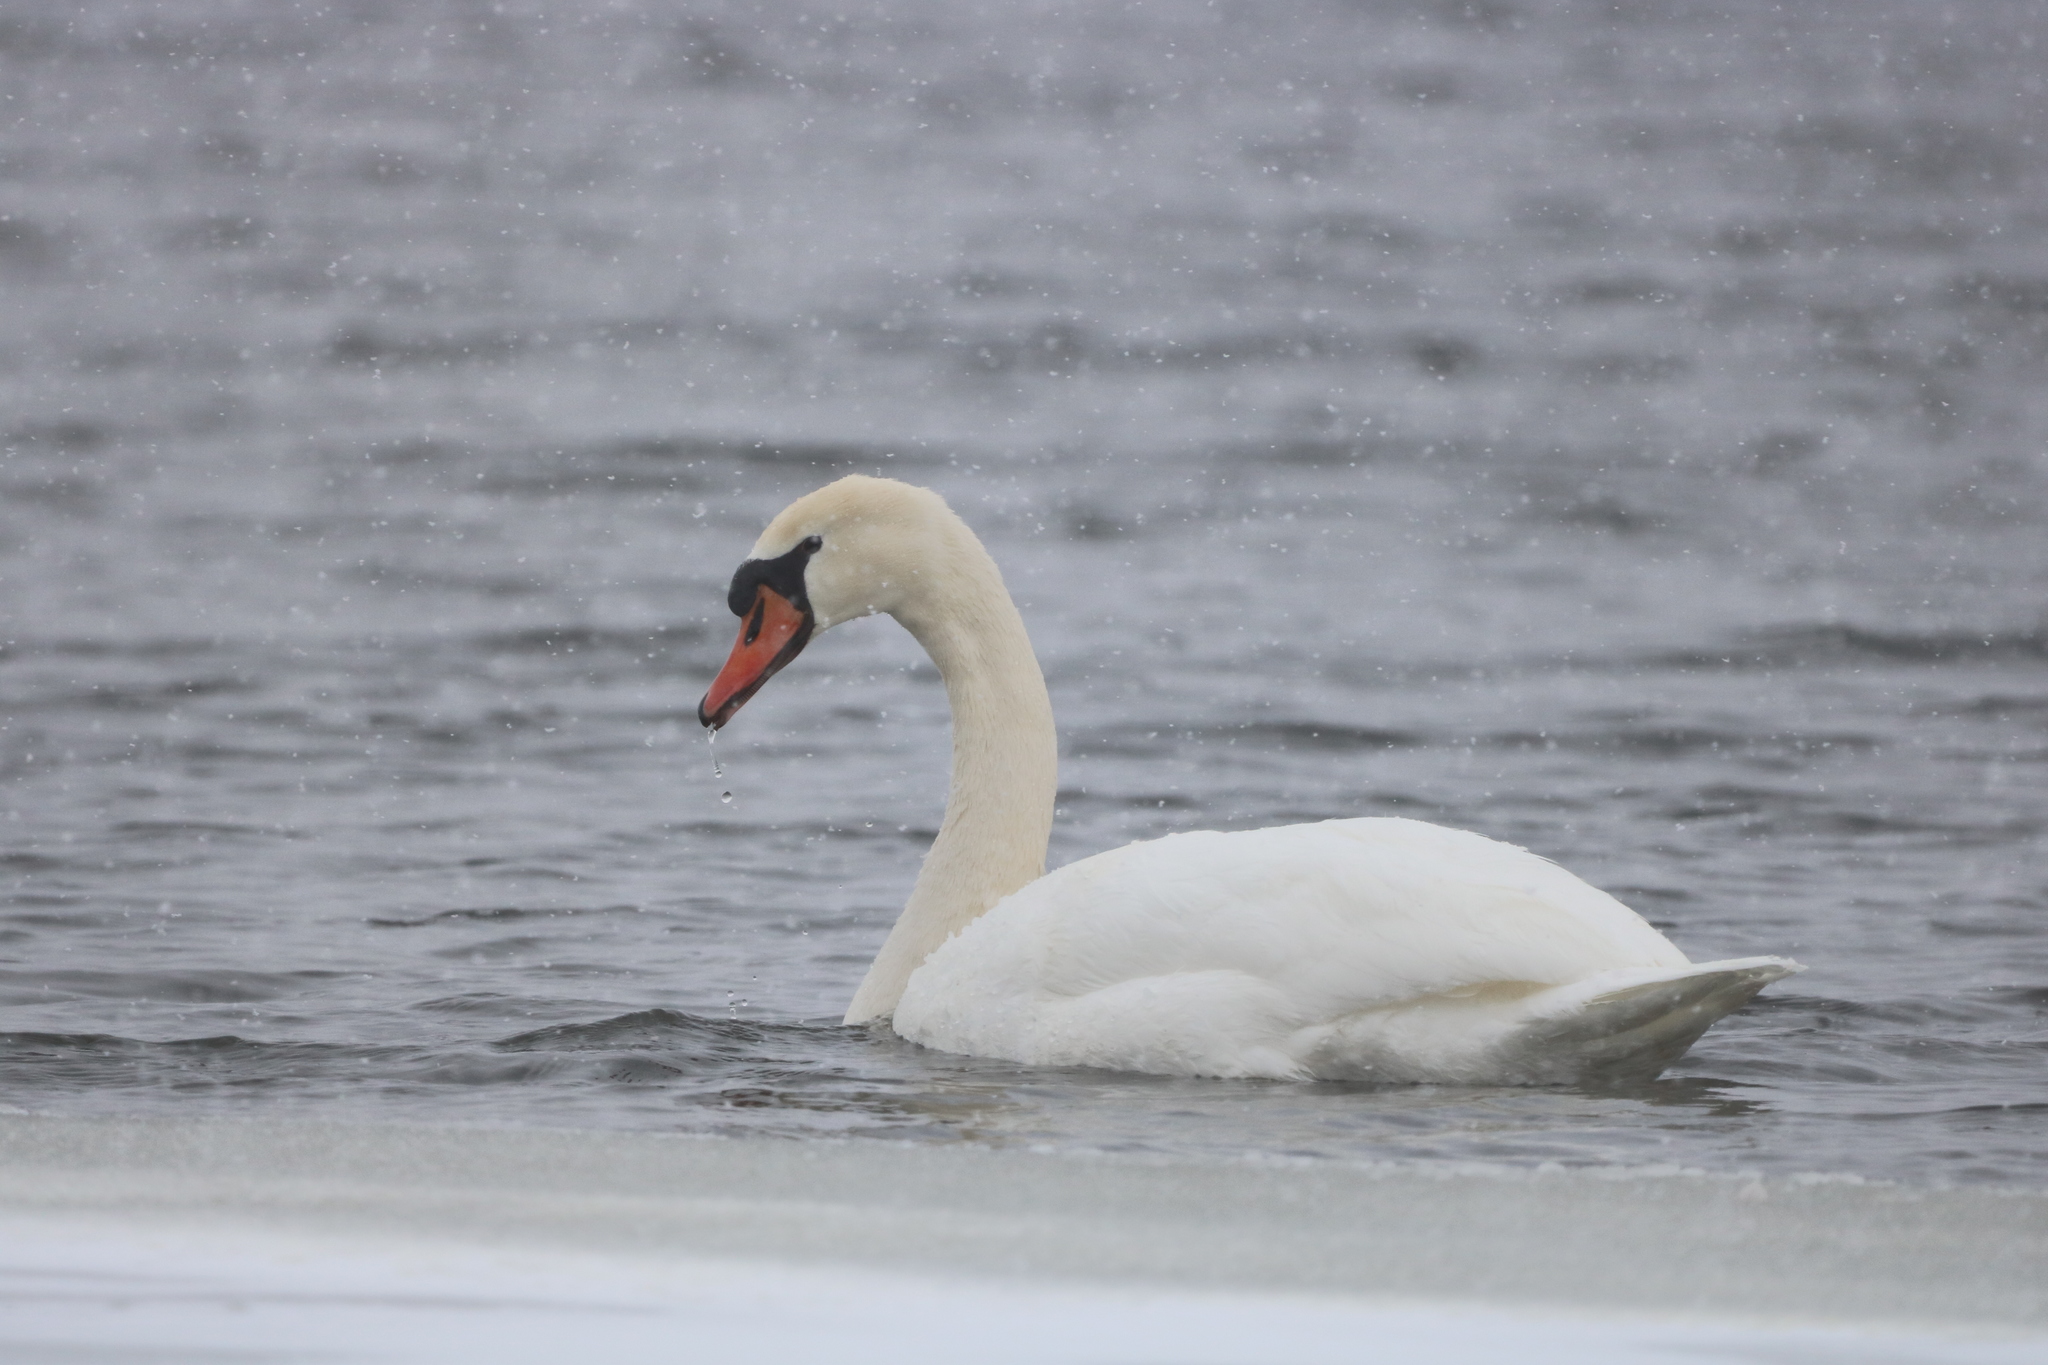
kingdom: Animalia
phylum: Chordata
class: Aves
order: Anseriformes
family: Anatidae
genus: Cygnus
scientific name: Cygnus olor
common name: Mute swan
